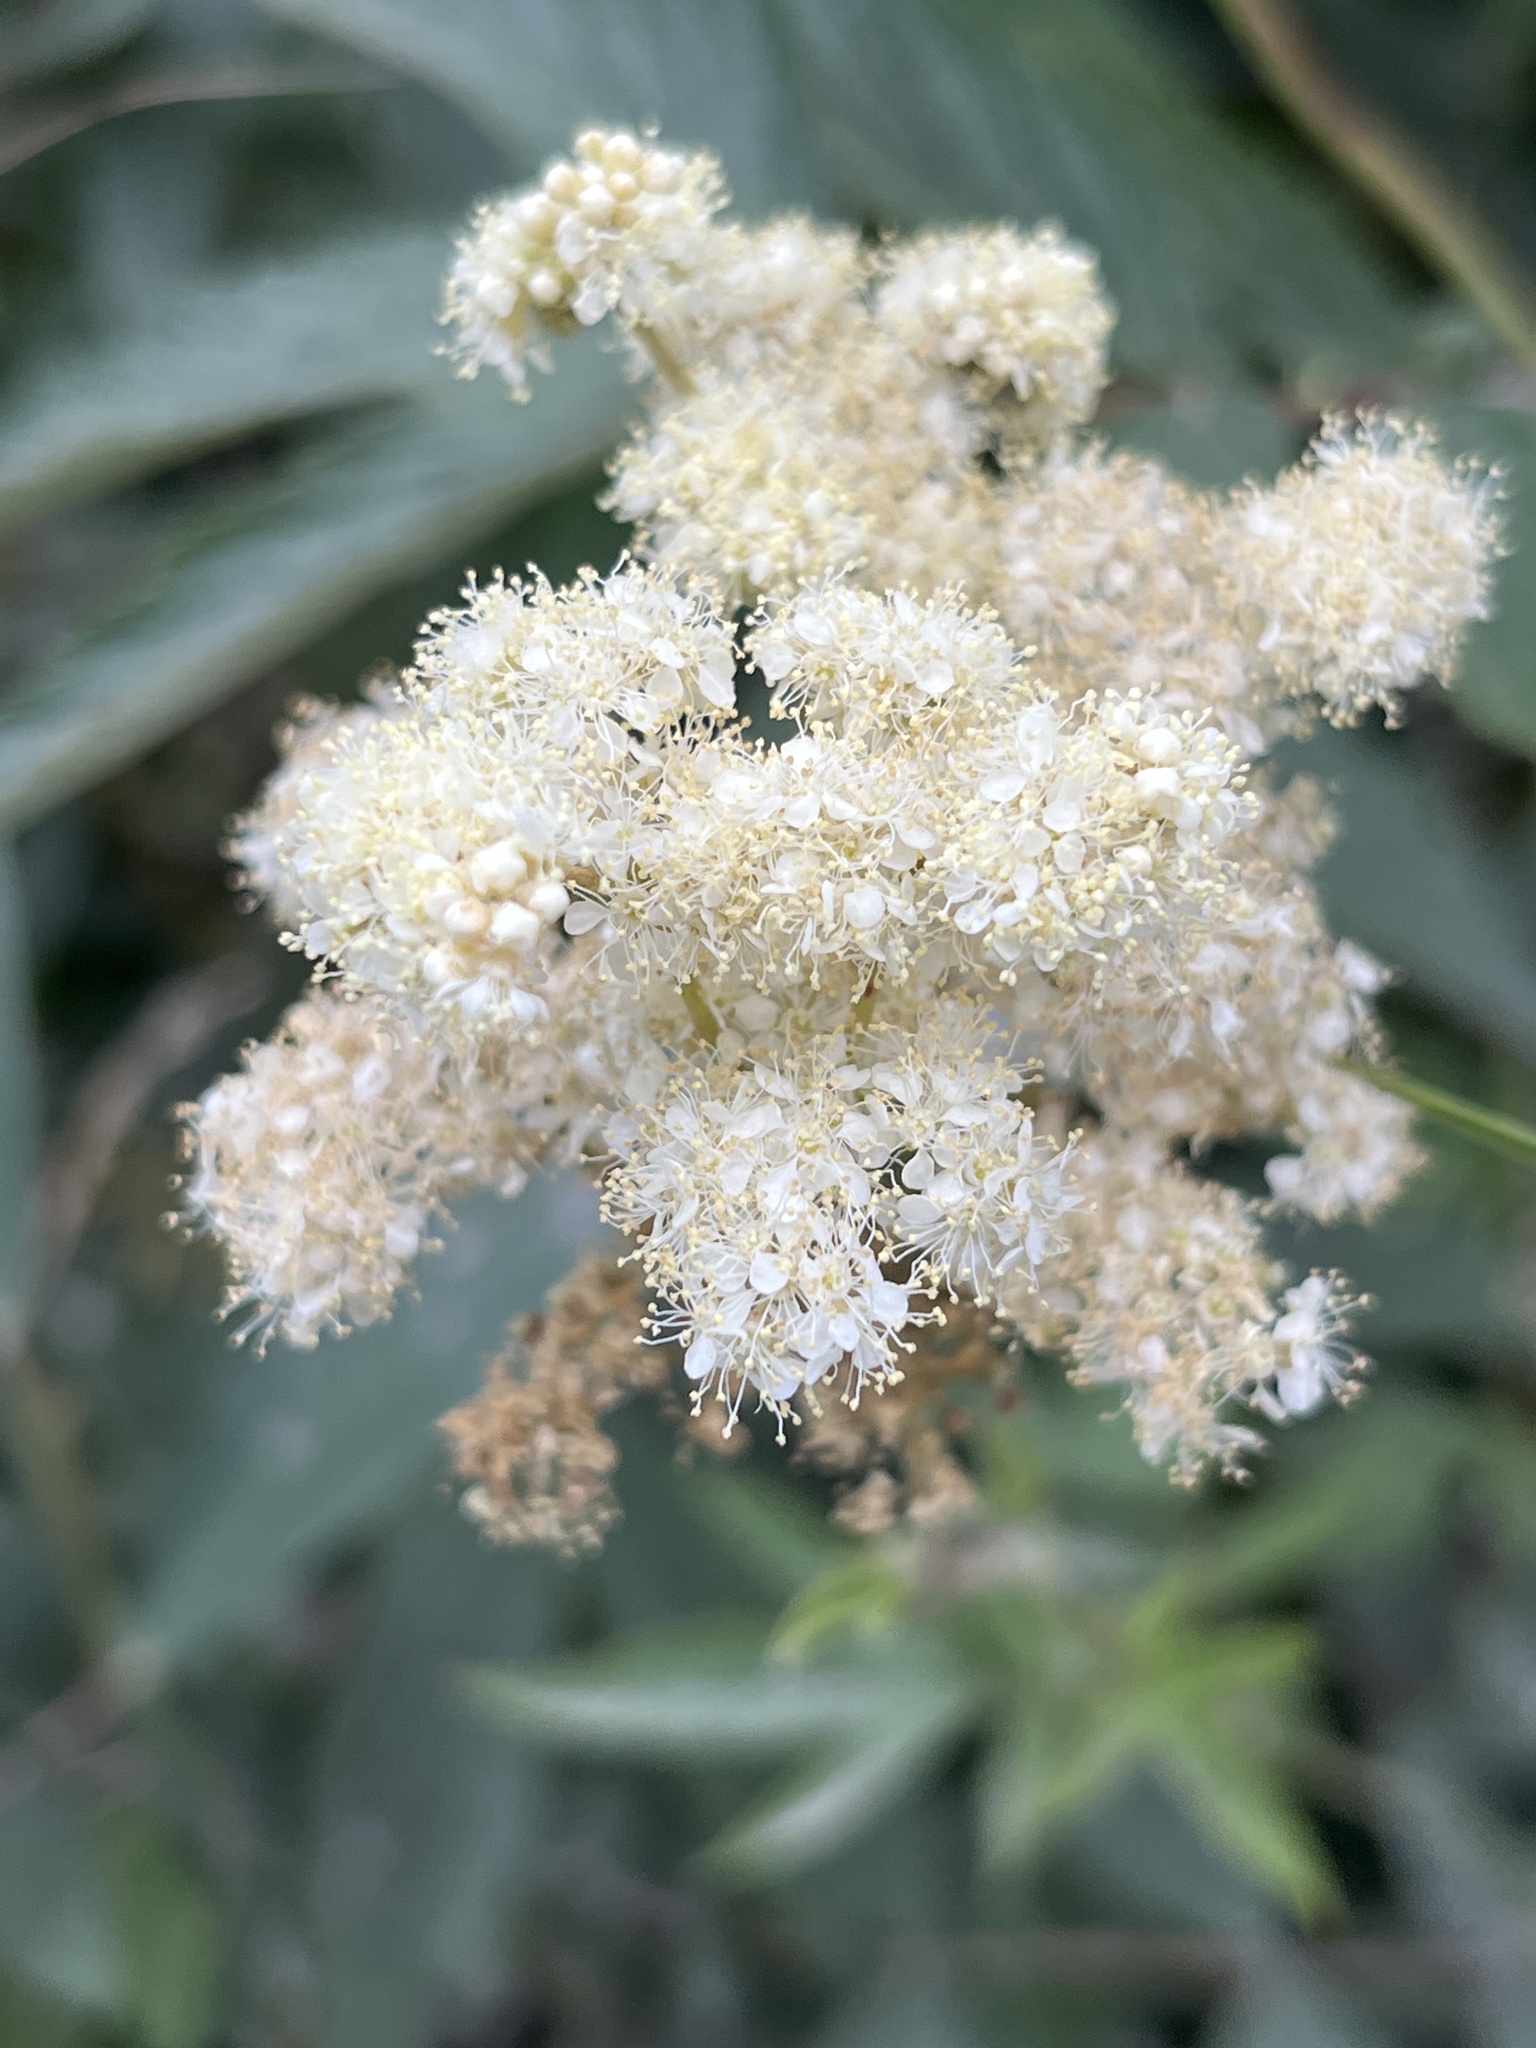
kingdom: Plantae
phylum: Tracheophyta
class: Magnoliopsida
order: Rosales
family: Rosaceae
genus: Filipendula
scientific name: Filipendula ulmaria
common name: Meadowsweet
